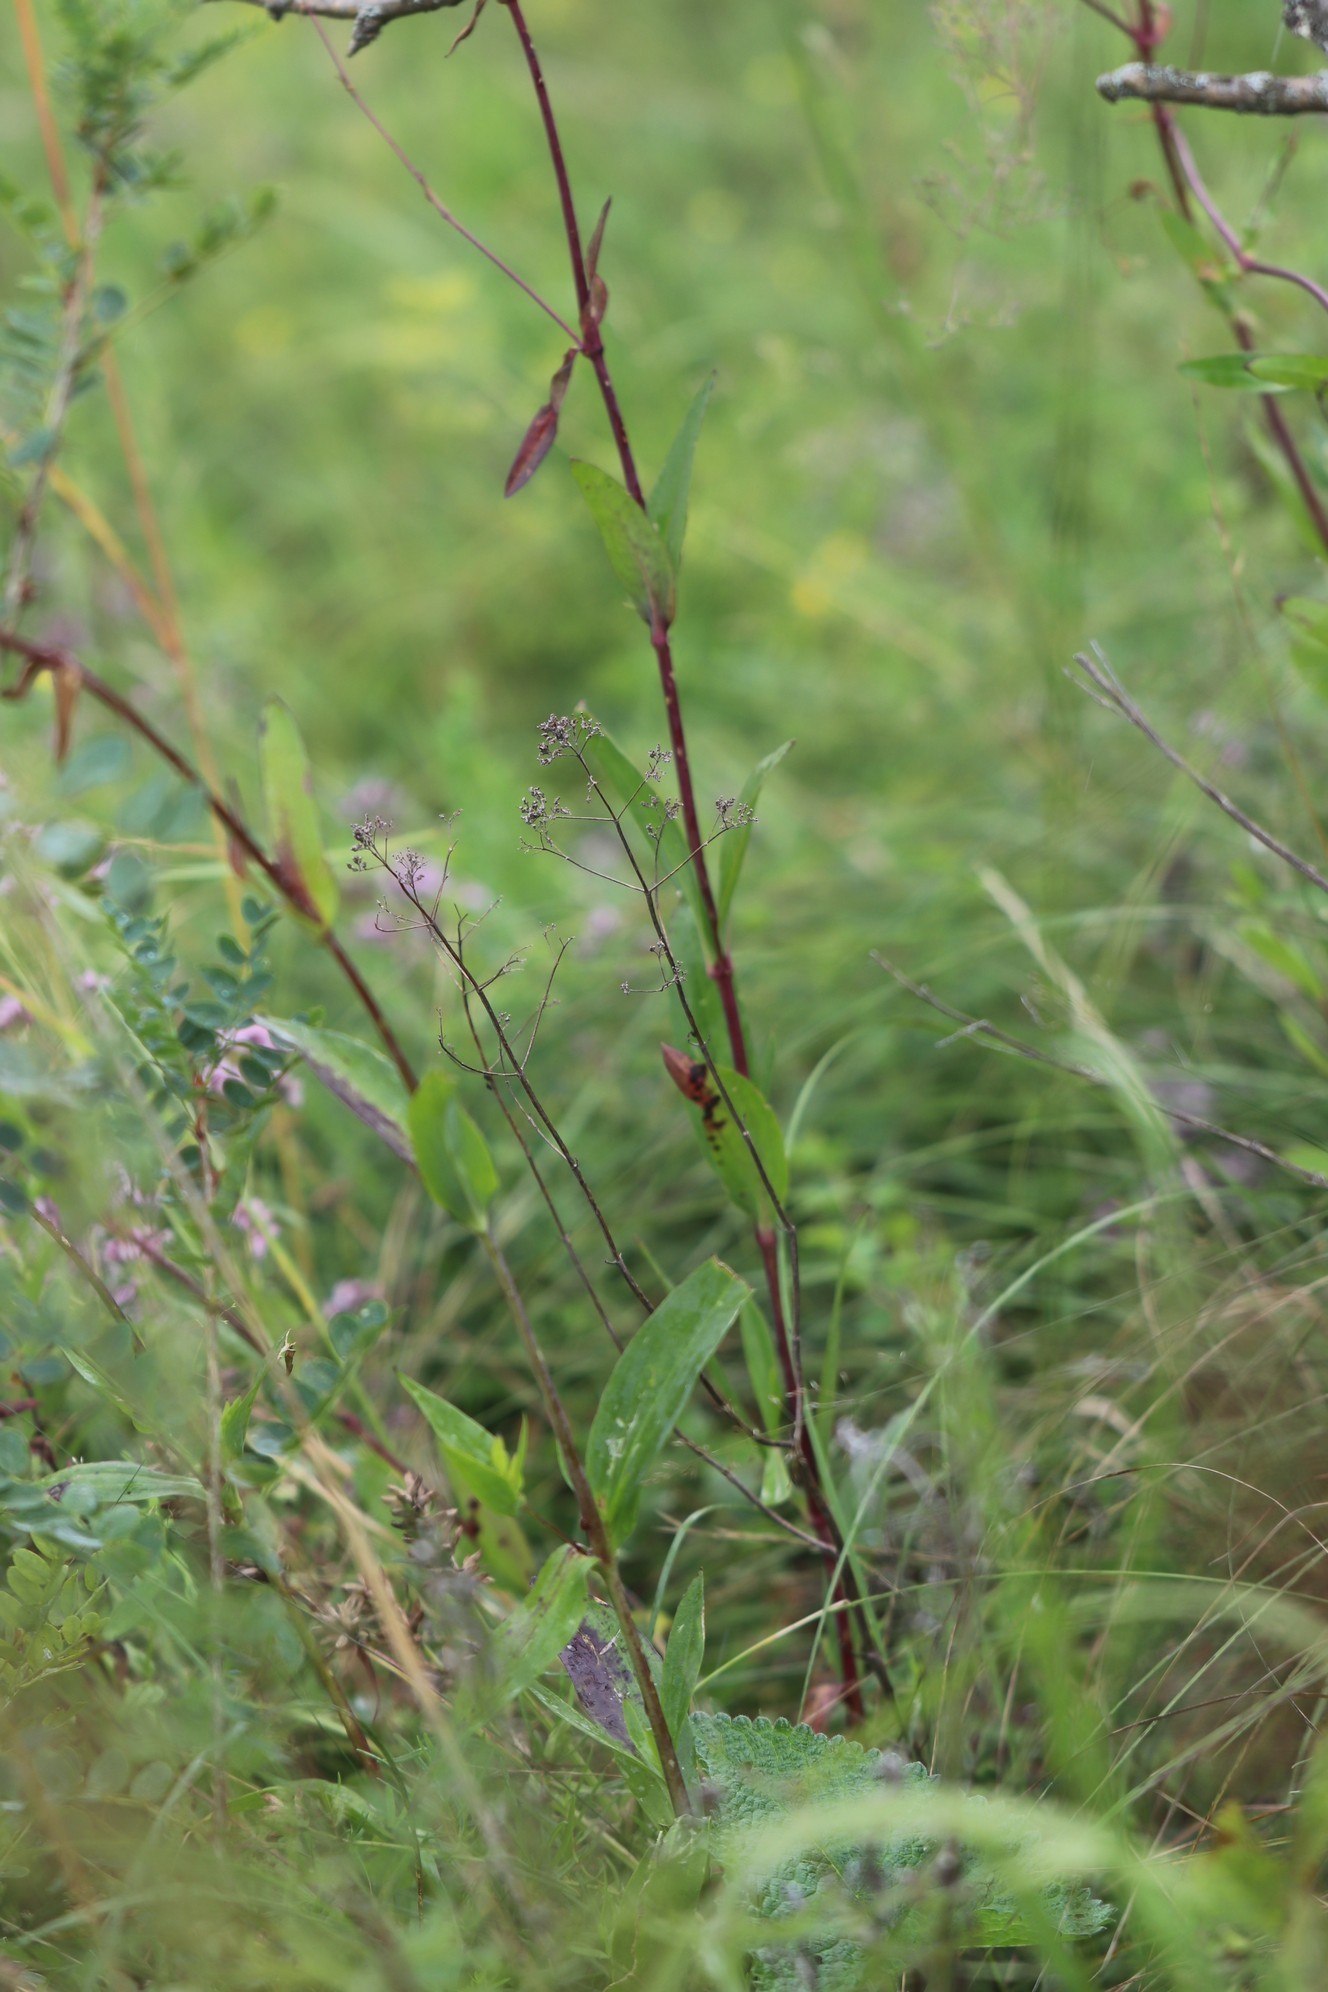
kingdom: Plantae
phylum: Tracheophyta
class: Magnoliopsida
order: Caryophyllales
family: Caryophyllaceae
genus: Gypsophila
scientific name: Gypsophila altissima
